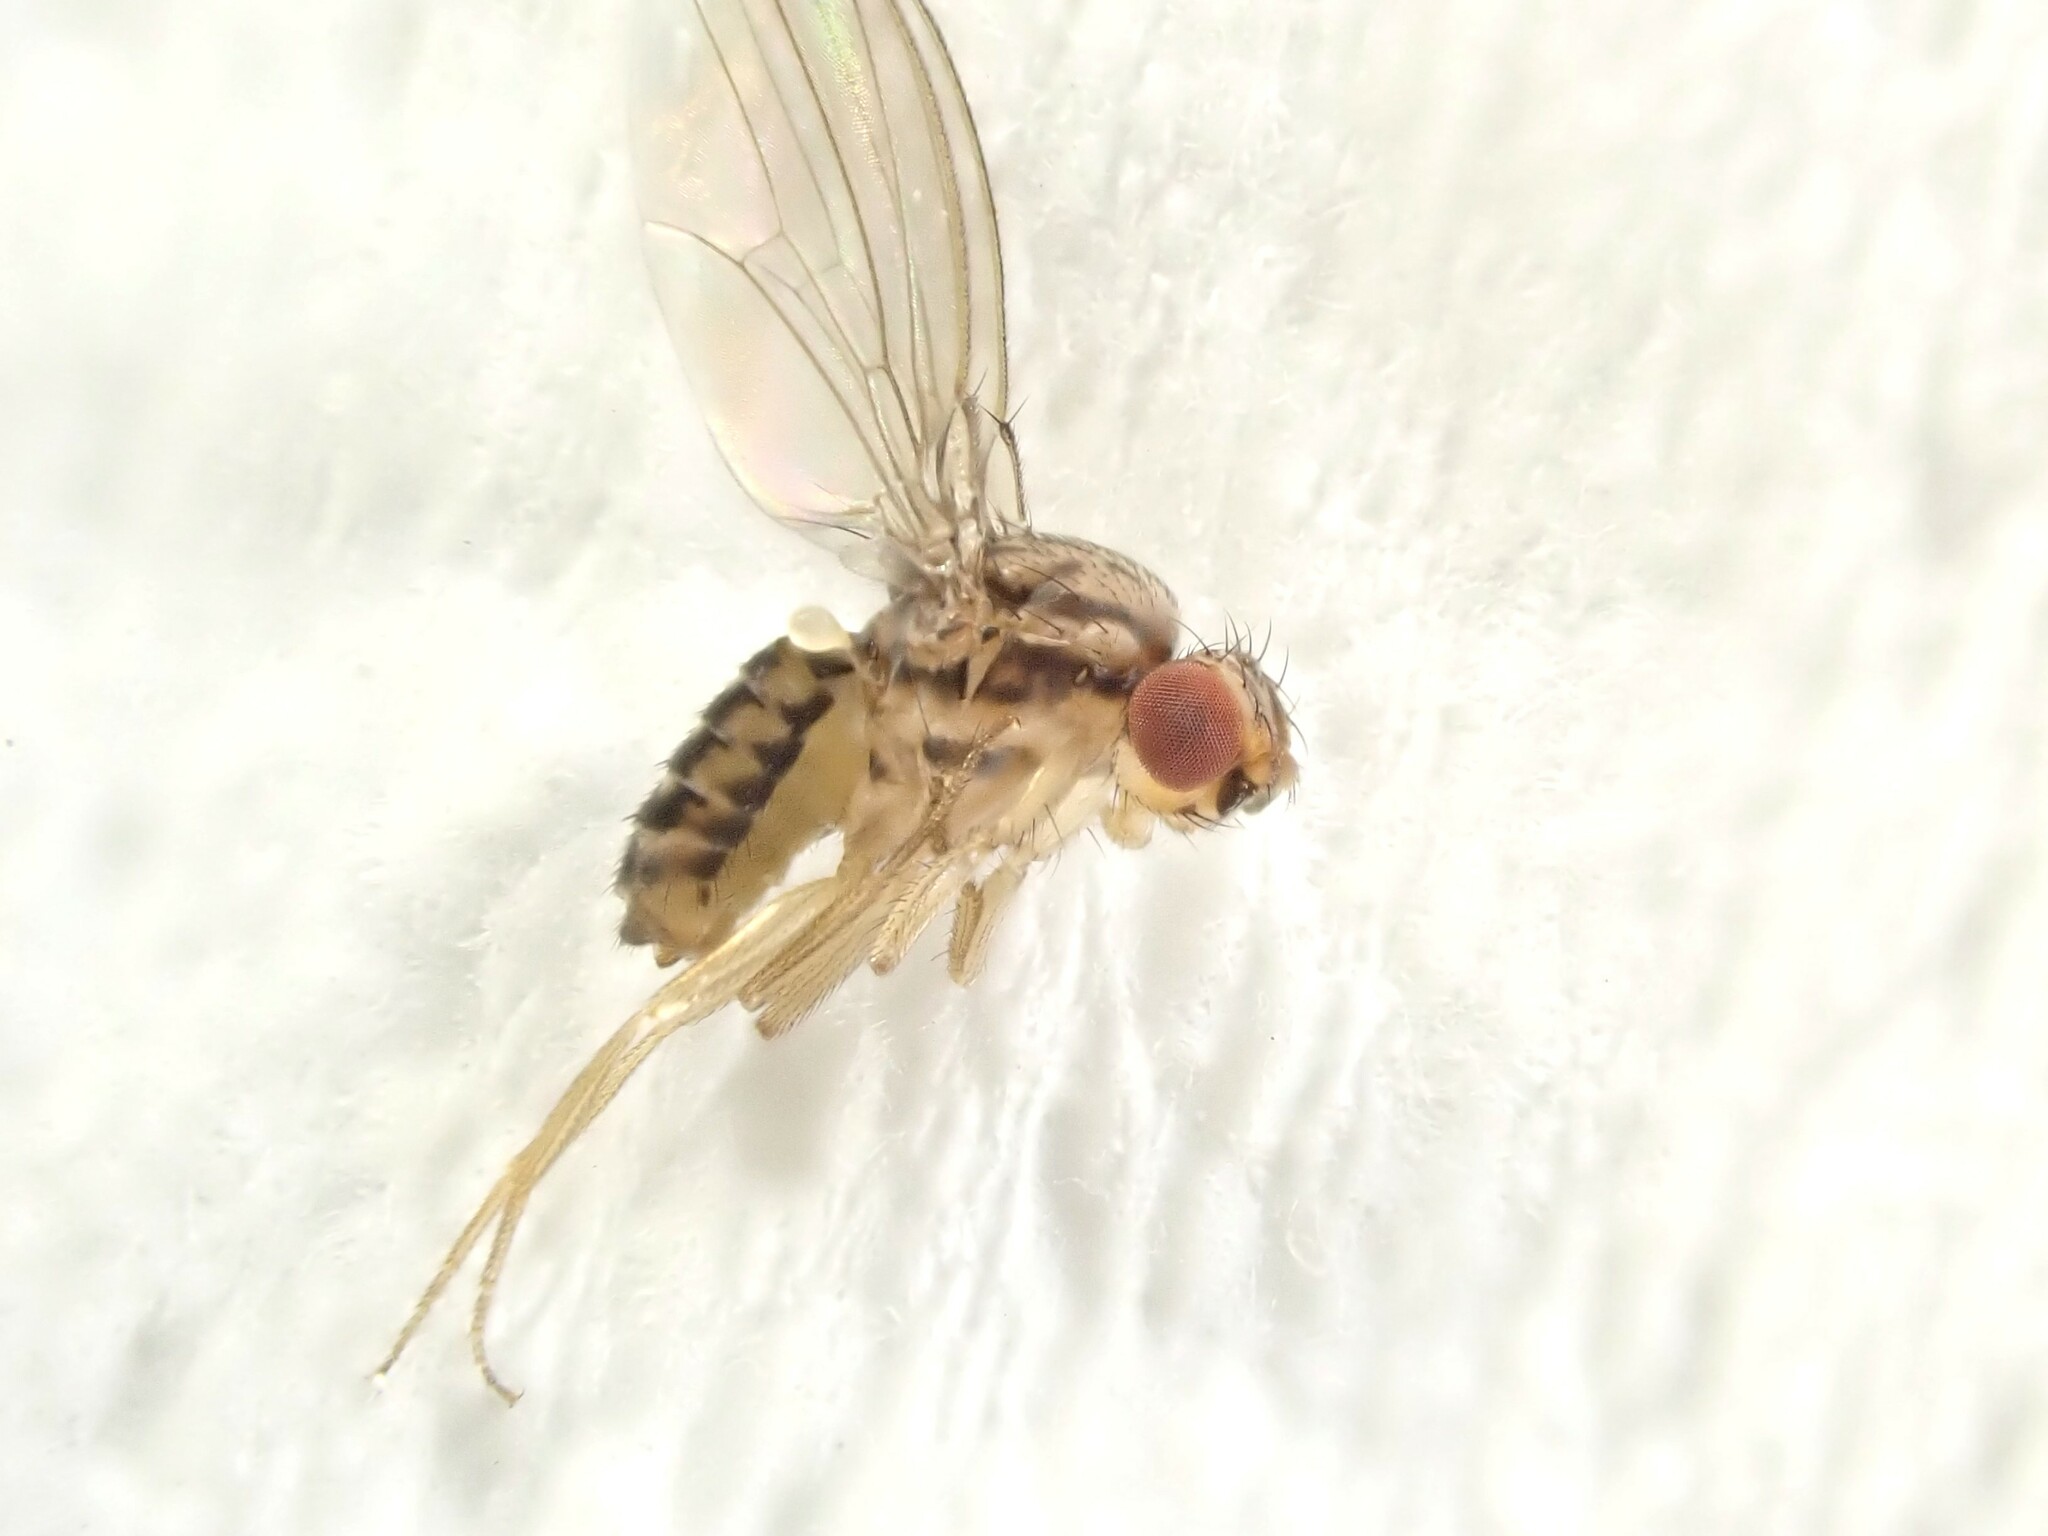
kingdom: Animalia
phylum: Arthropoda
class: Insecta
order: Diptera
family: Drosophilidae
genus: Drosophila
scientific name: Drosophila busckii
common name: Pomace fly
